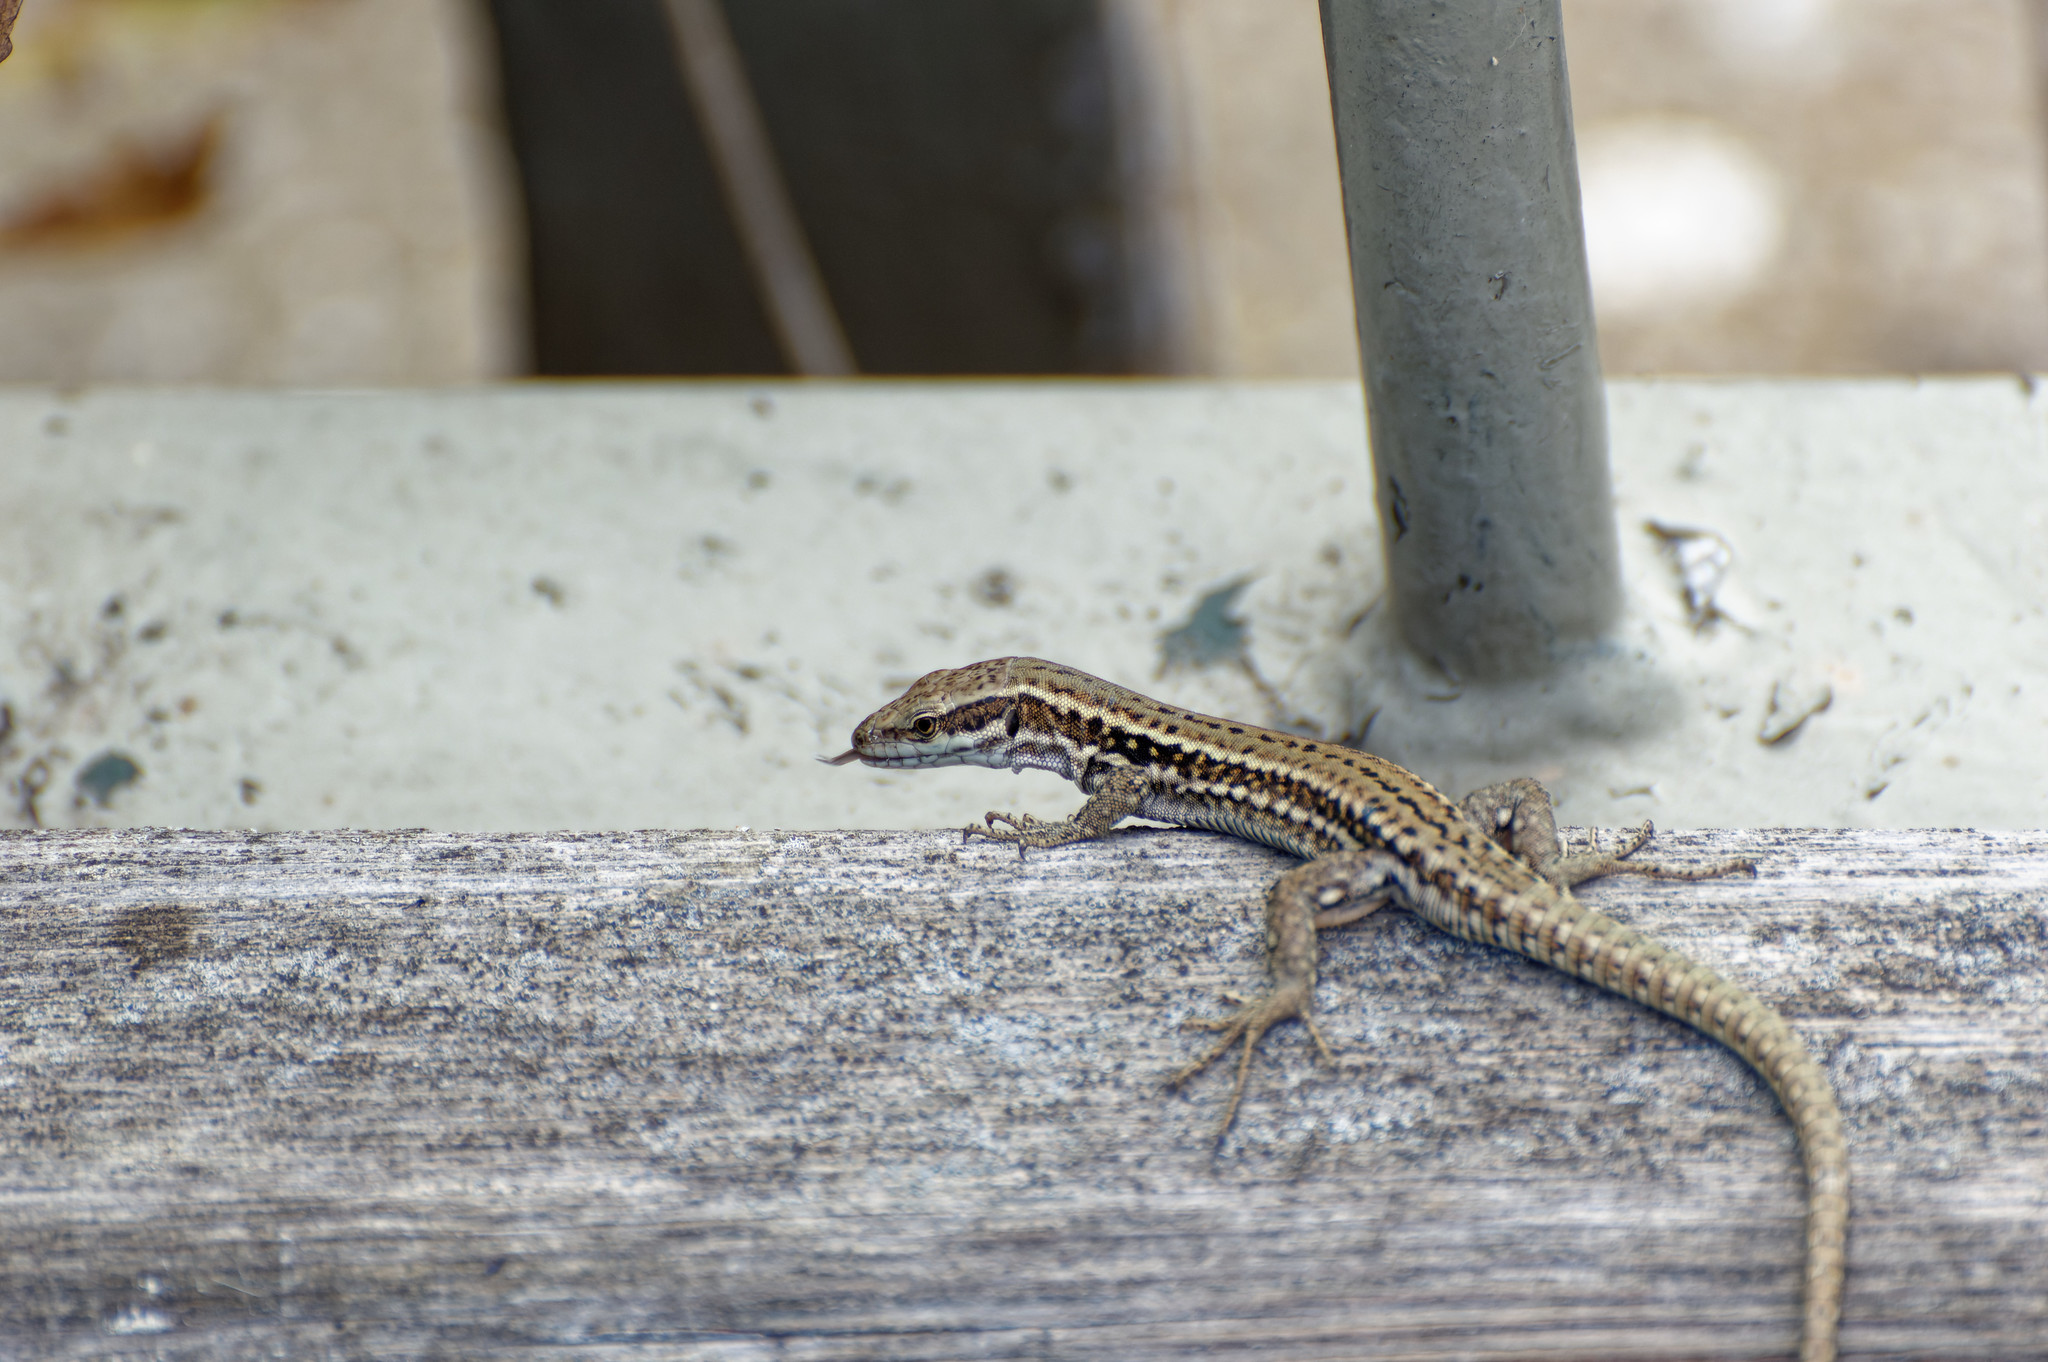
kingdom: Animalia
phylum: Chordata
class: Squamata
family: Lacertidae
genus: Podarcis
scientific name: Podarcis muralis
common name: Common wall lizard
